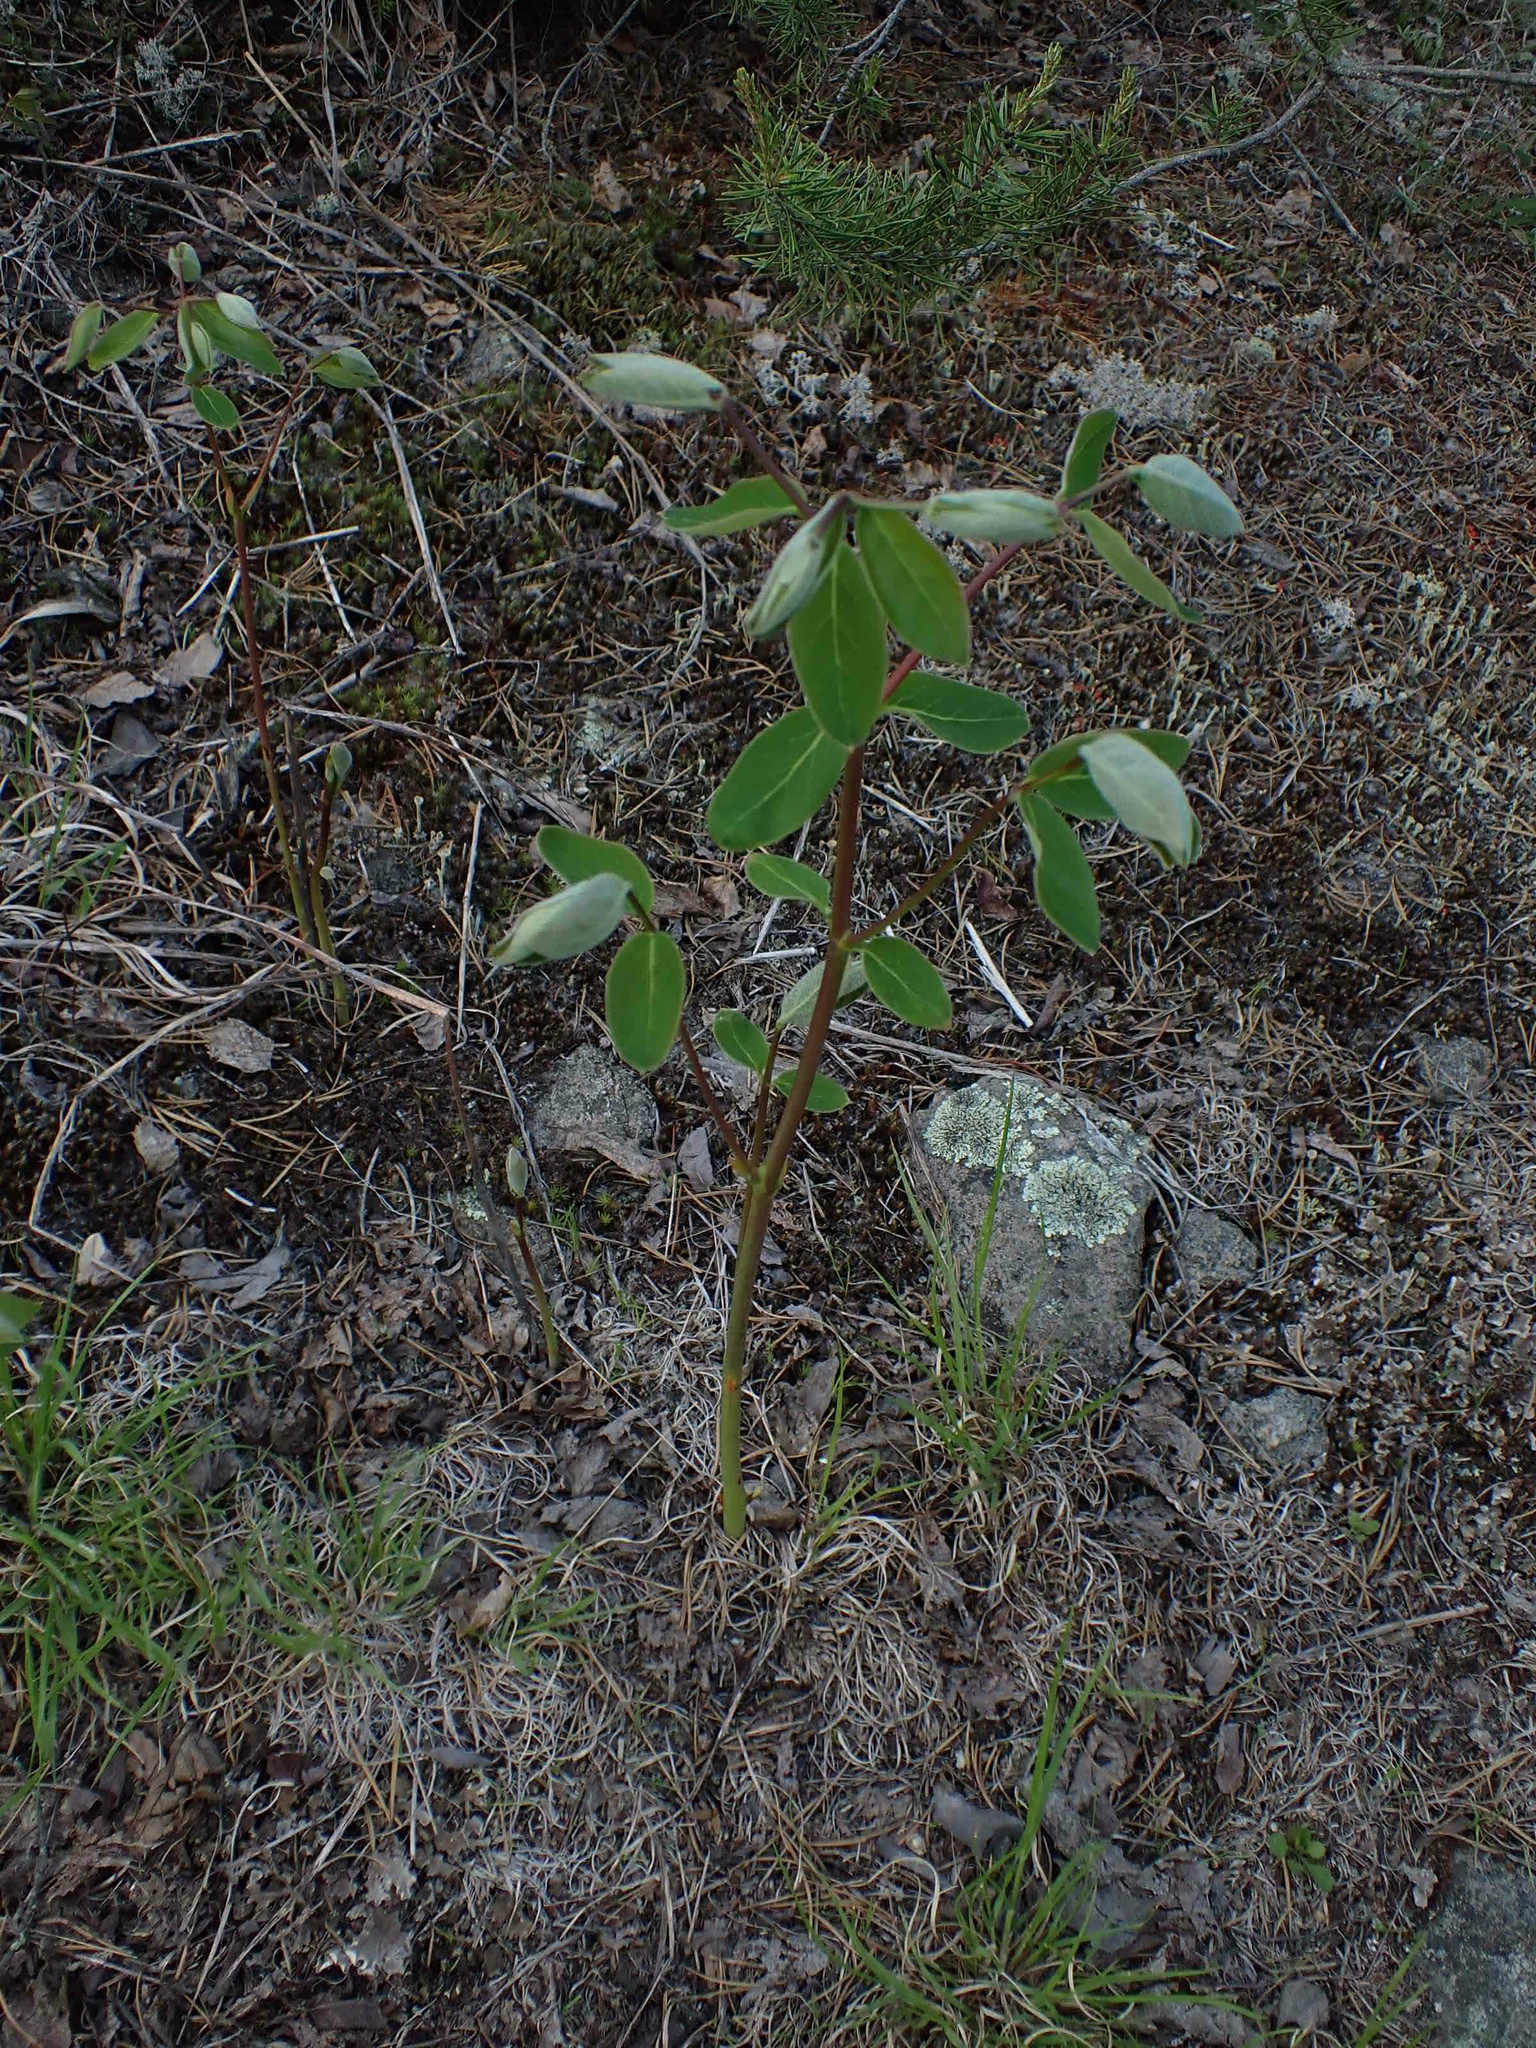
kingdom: Plantae
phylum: Tracheophyta
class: Magnoliopsida
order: Gentianales
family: Apocynaceae
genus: Apocynum
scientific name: Apocynum androsaemifolium
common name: Spreading dogbane
